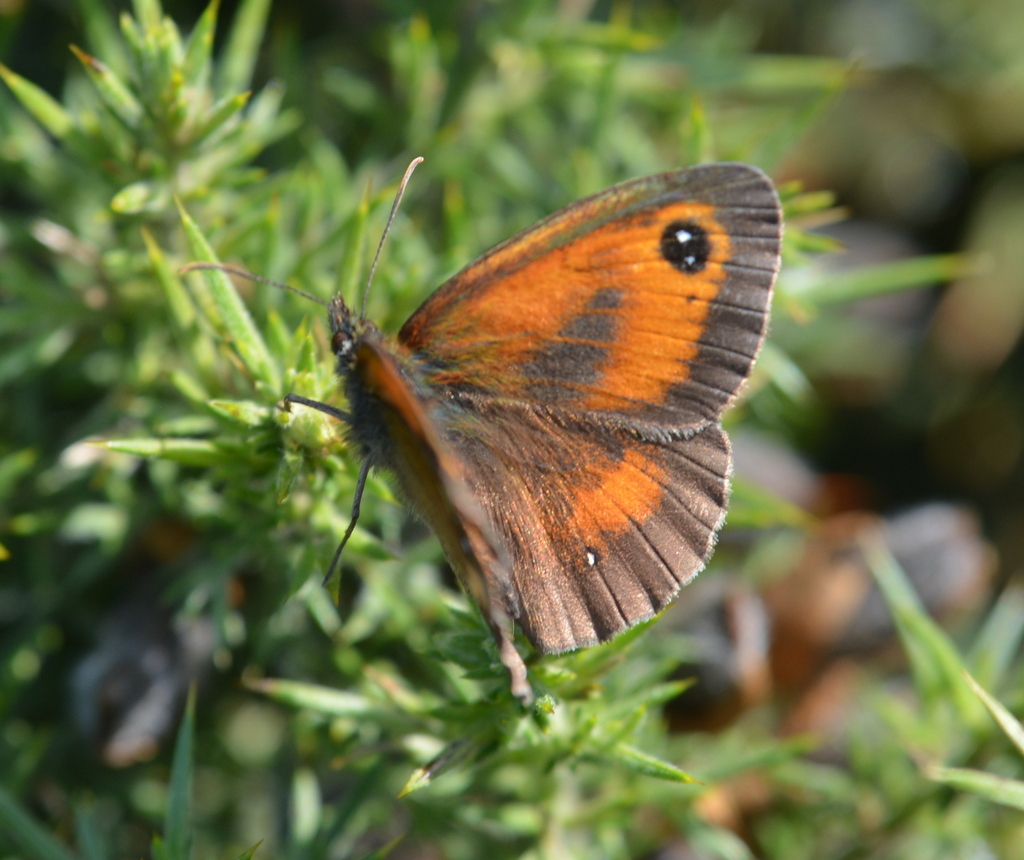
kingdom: Animalia
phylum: Arthropoda
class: Insecta
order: Lepidoptera
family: Nymphalidae
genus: Pyronia
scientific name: Pyronia tithonus
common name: Gatekeeper
